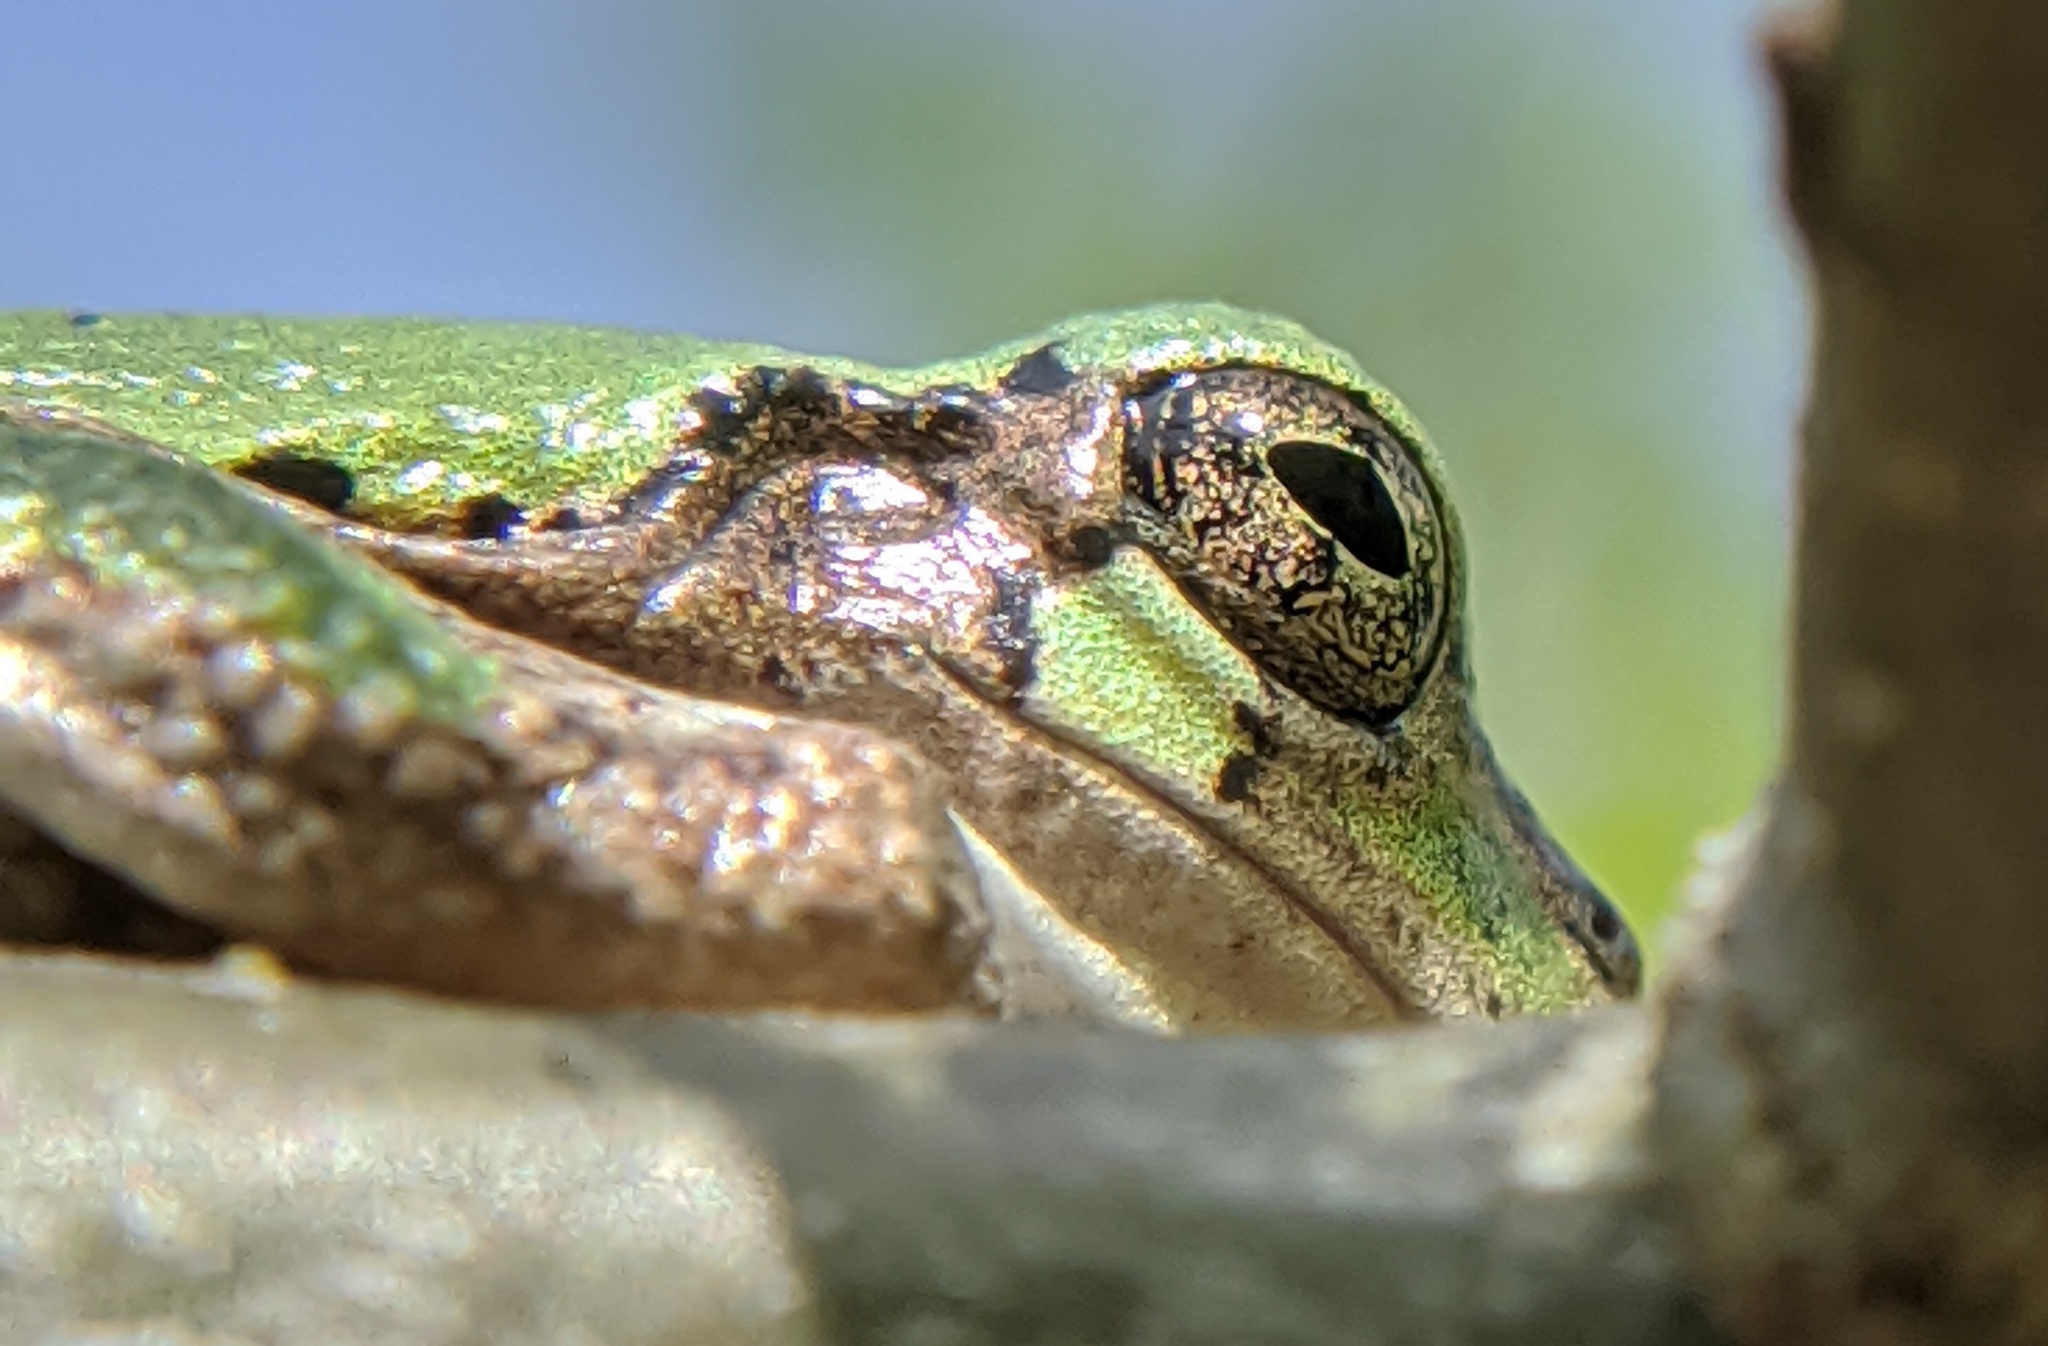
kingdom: Animalia
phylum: Chordata
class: Amphibia
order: Anura
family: Hylidae
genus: Hyla
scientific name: Hyla
